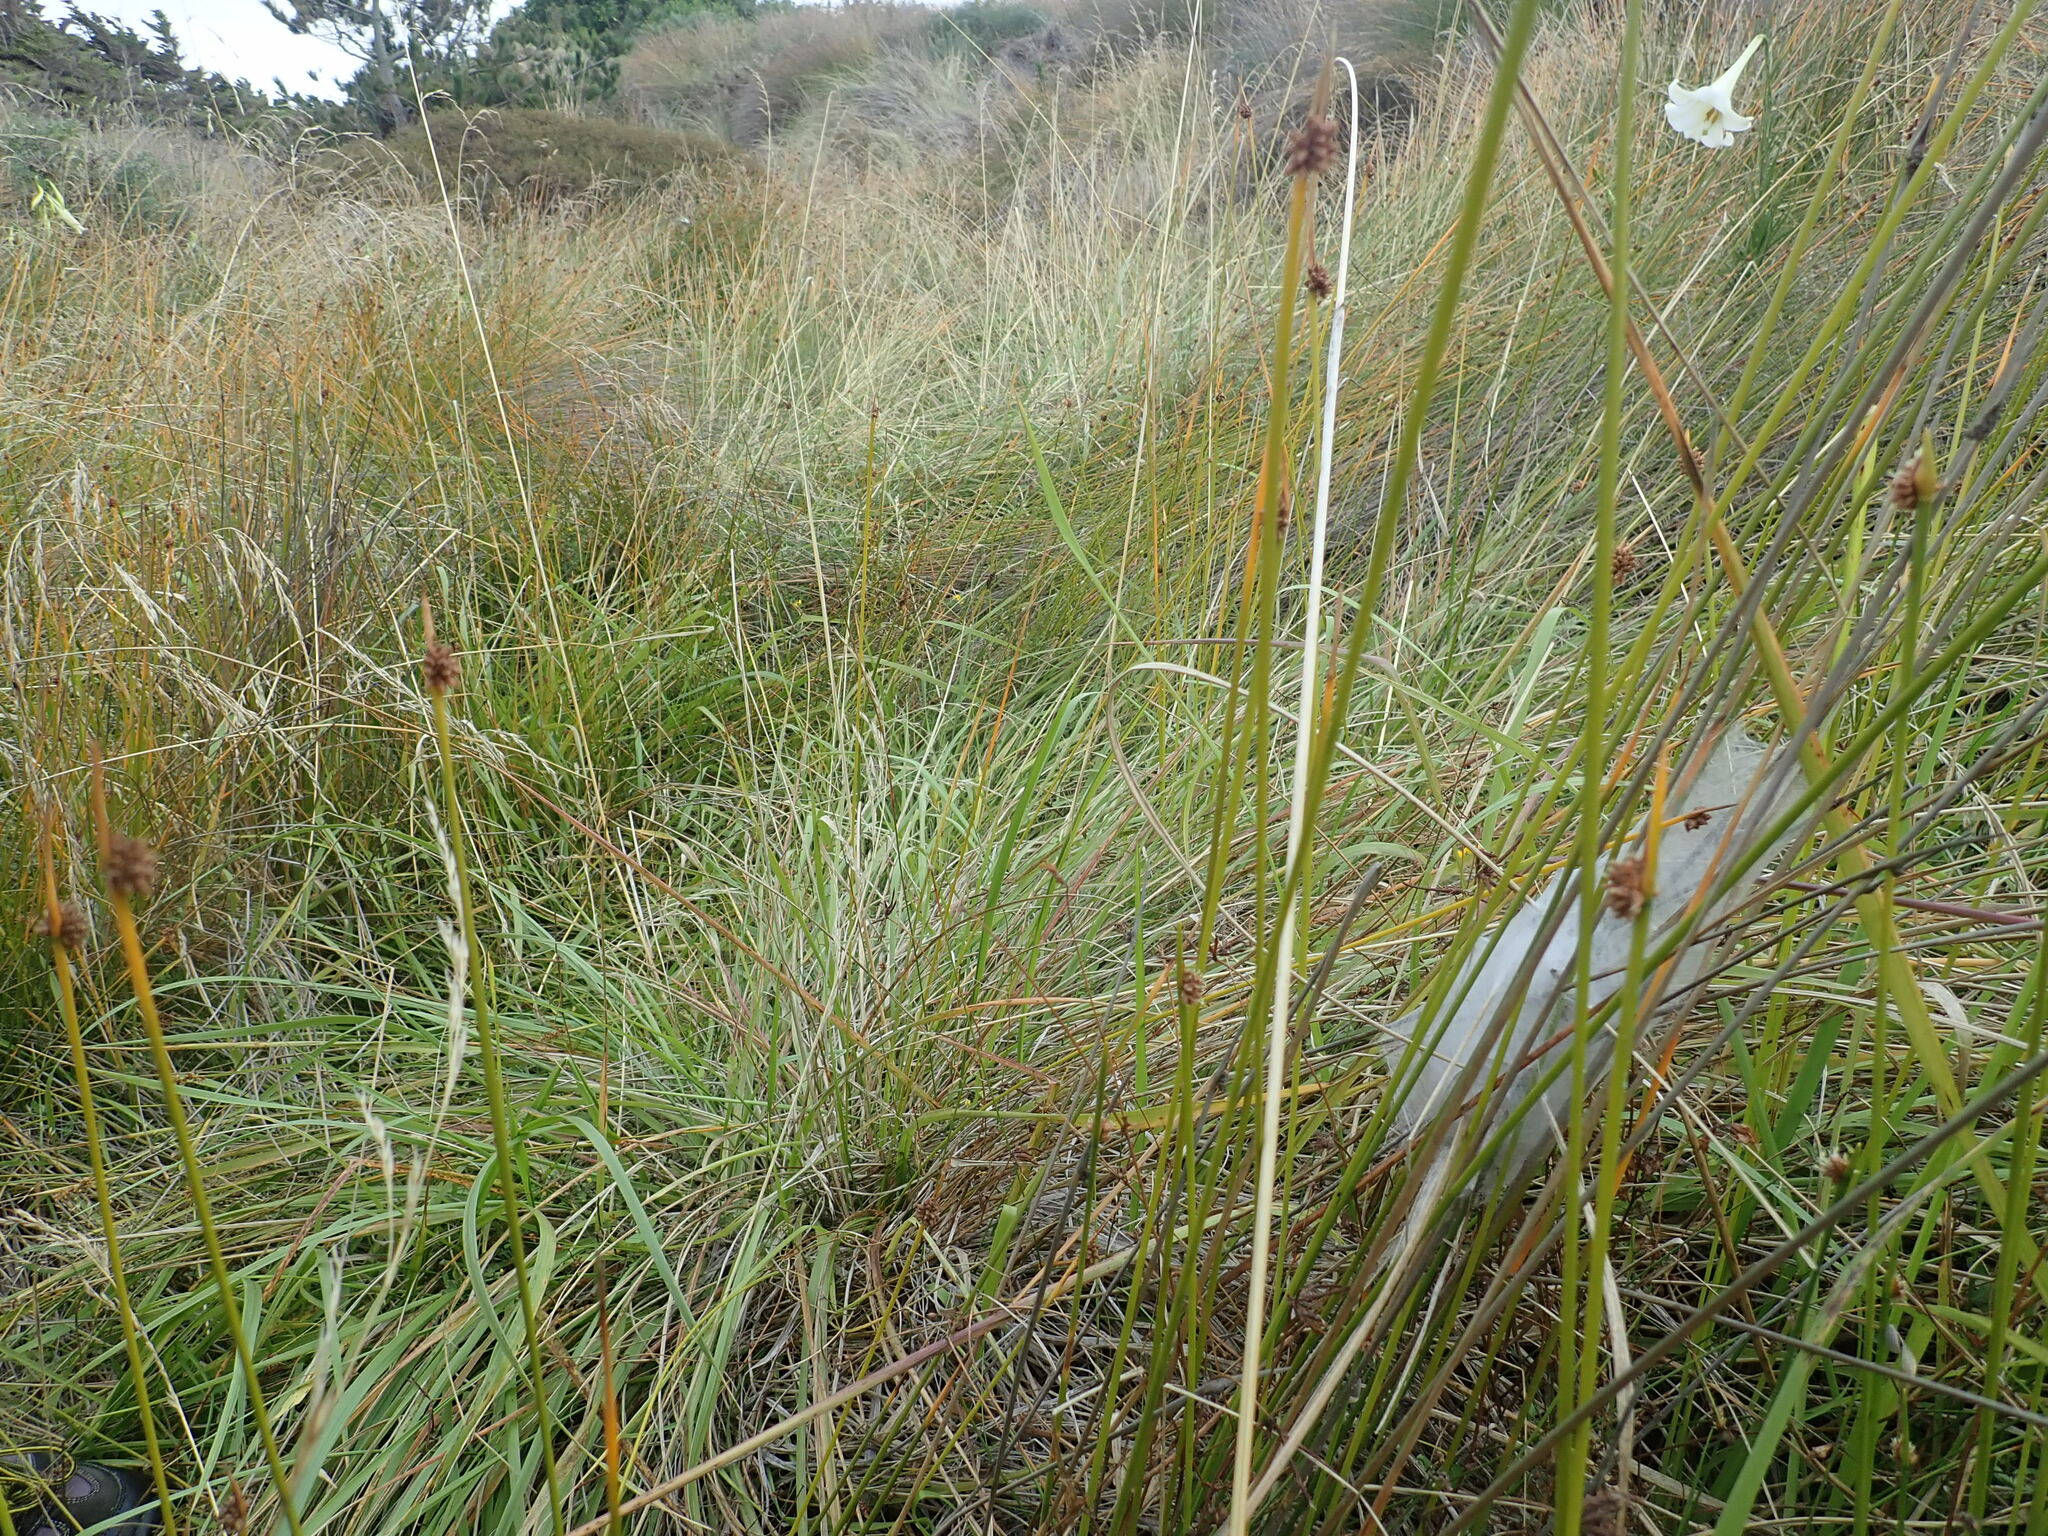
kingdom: Animalia
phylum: Arthropoda
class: Arachnida
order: Araneae
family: Pisauridae
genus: Dolomedes
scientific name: Dolomedes minor
